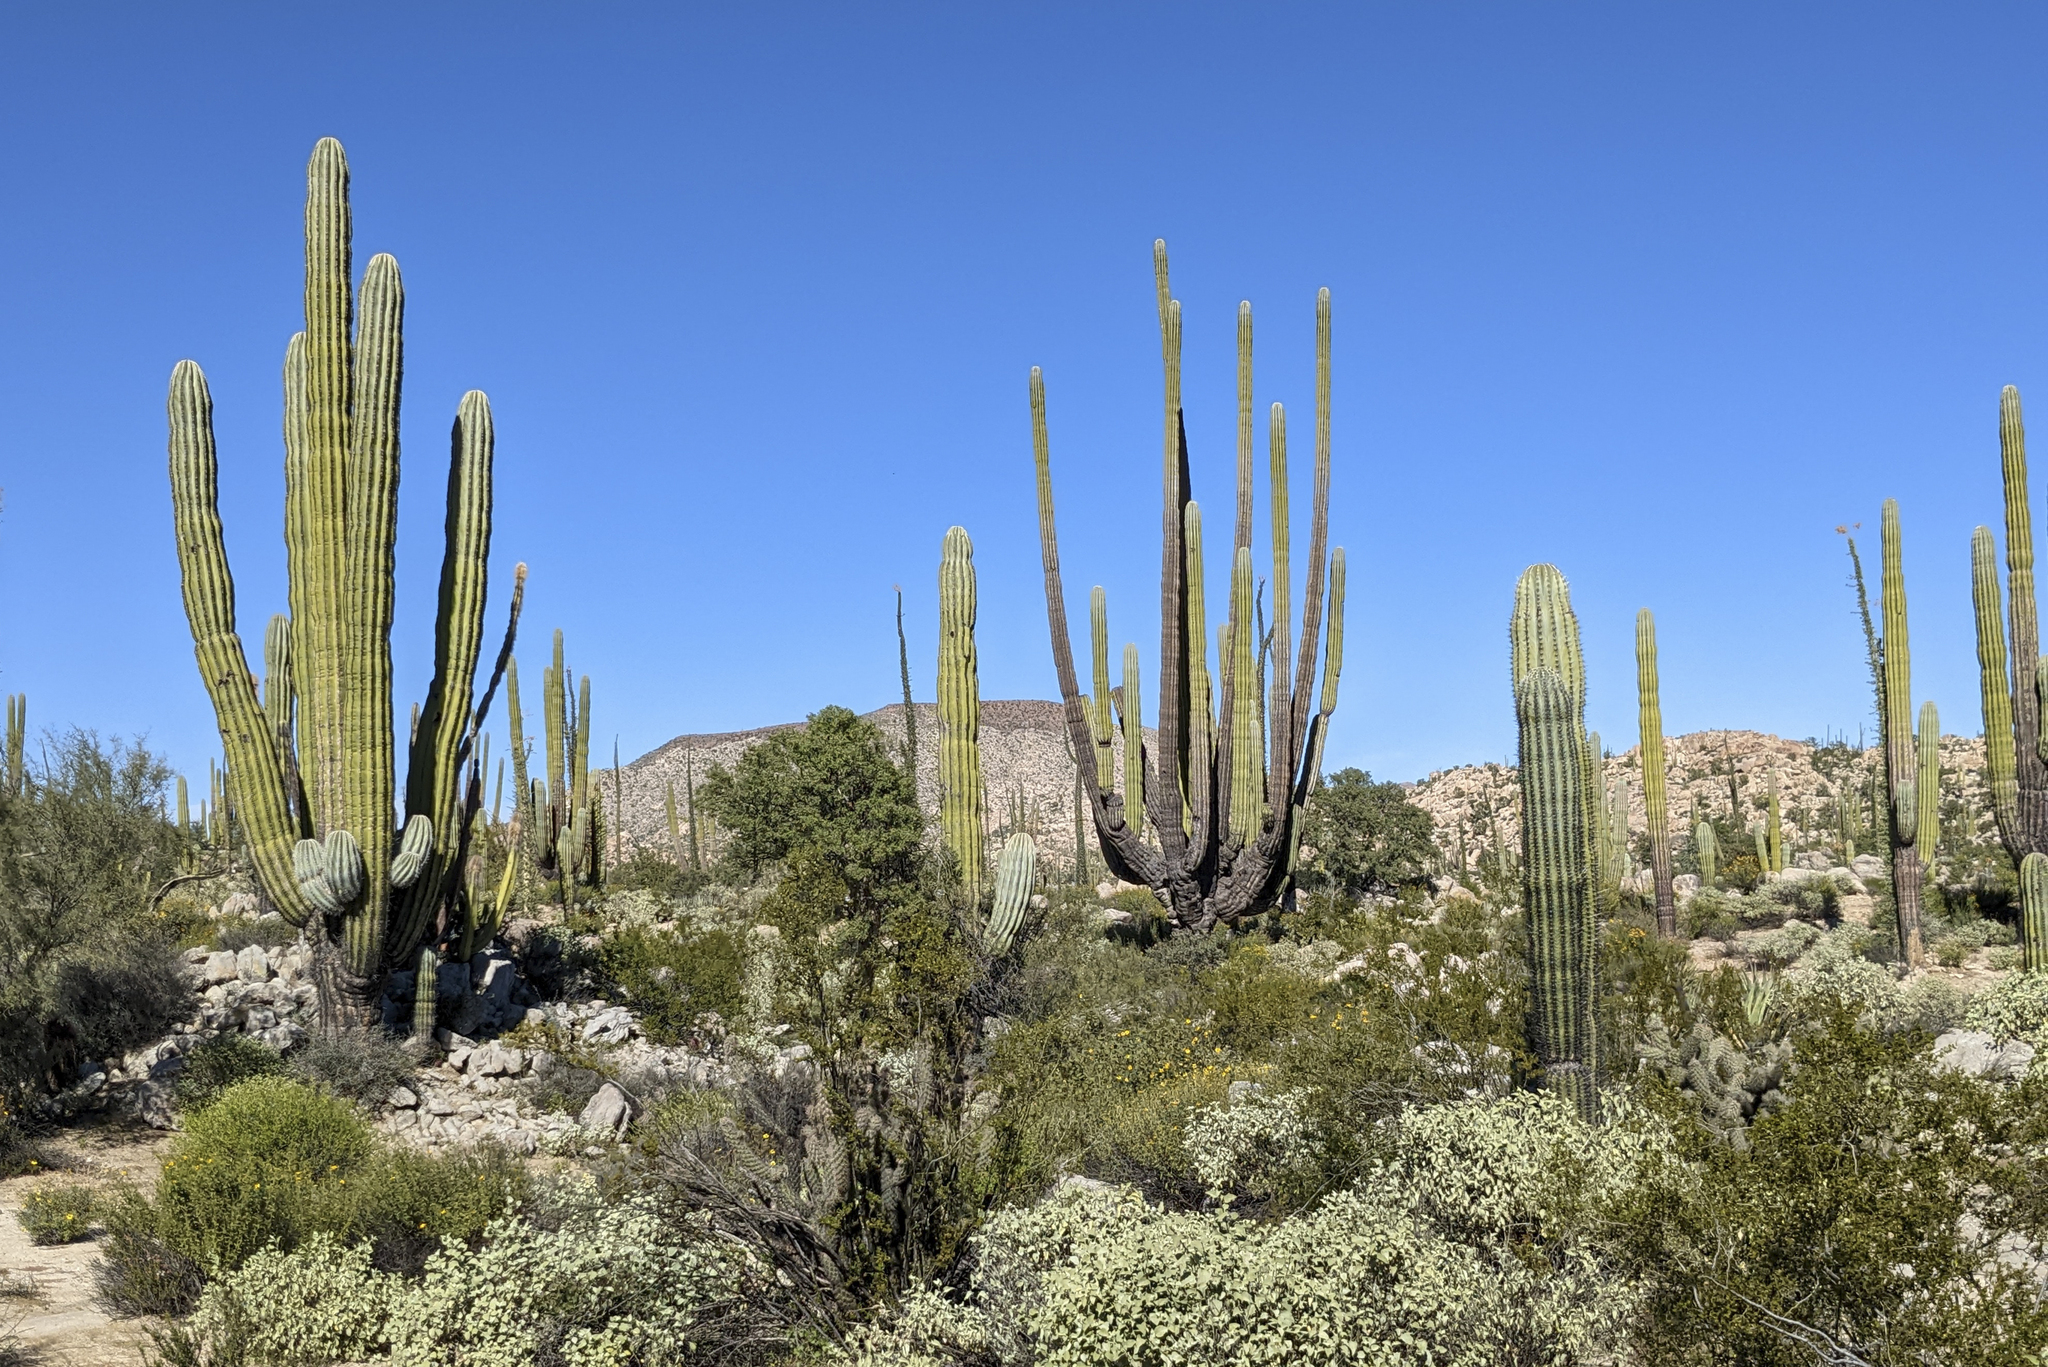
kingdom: Plantae
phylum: Tracheophyta
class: Magnoliopsida
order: Caryophyllales
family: Cactaceae
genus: Pachycereus
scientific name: Pachycereus pringlei
